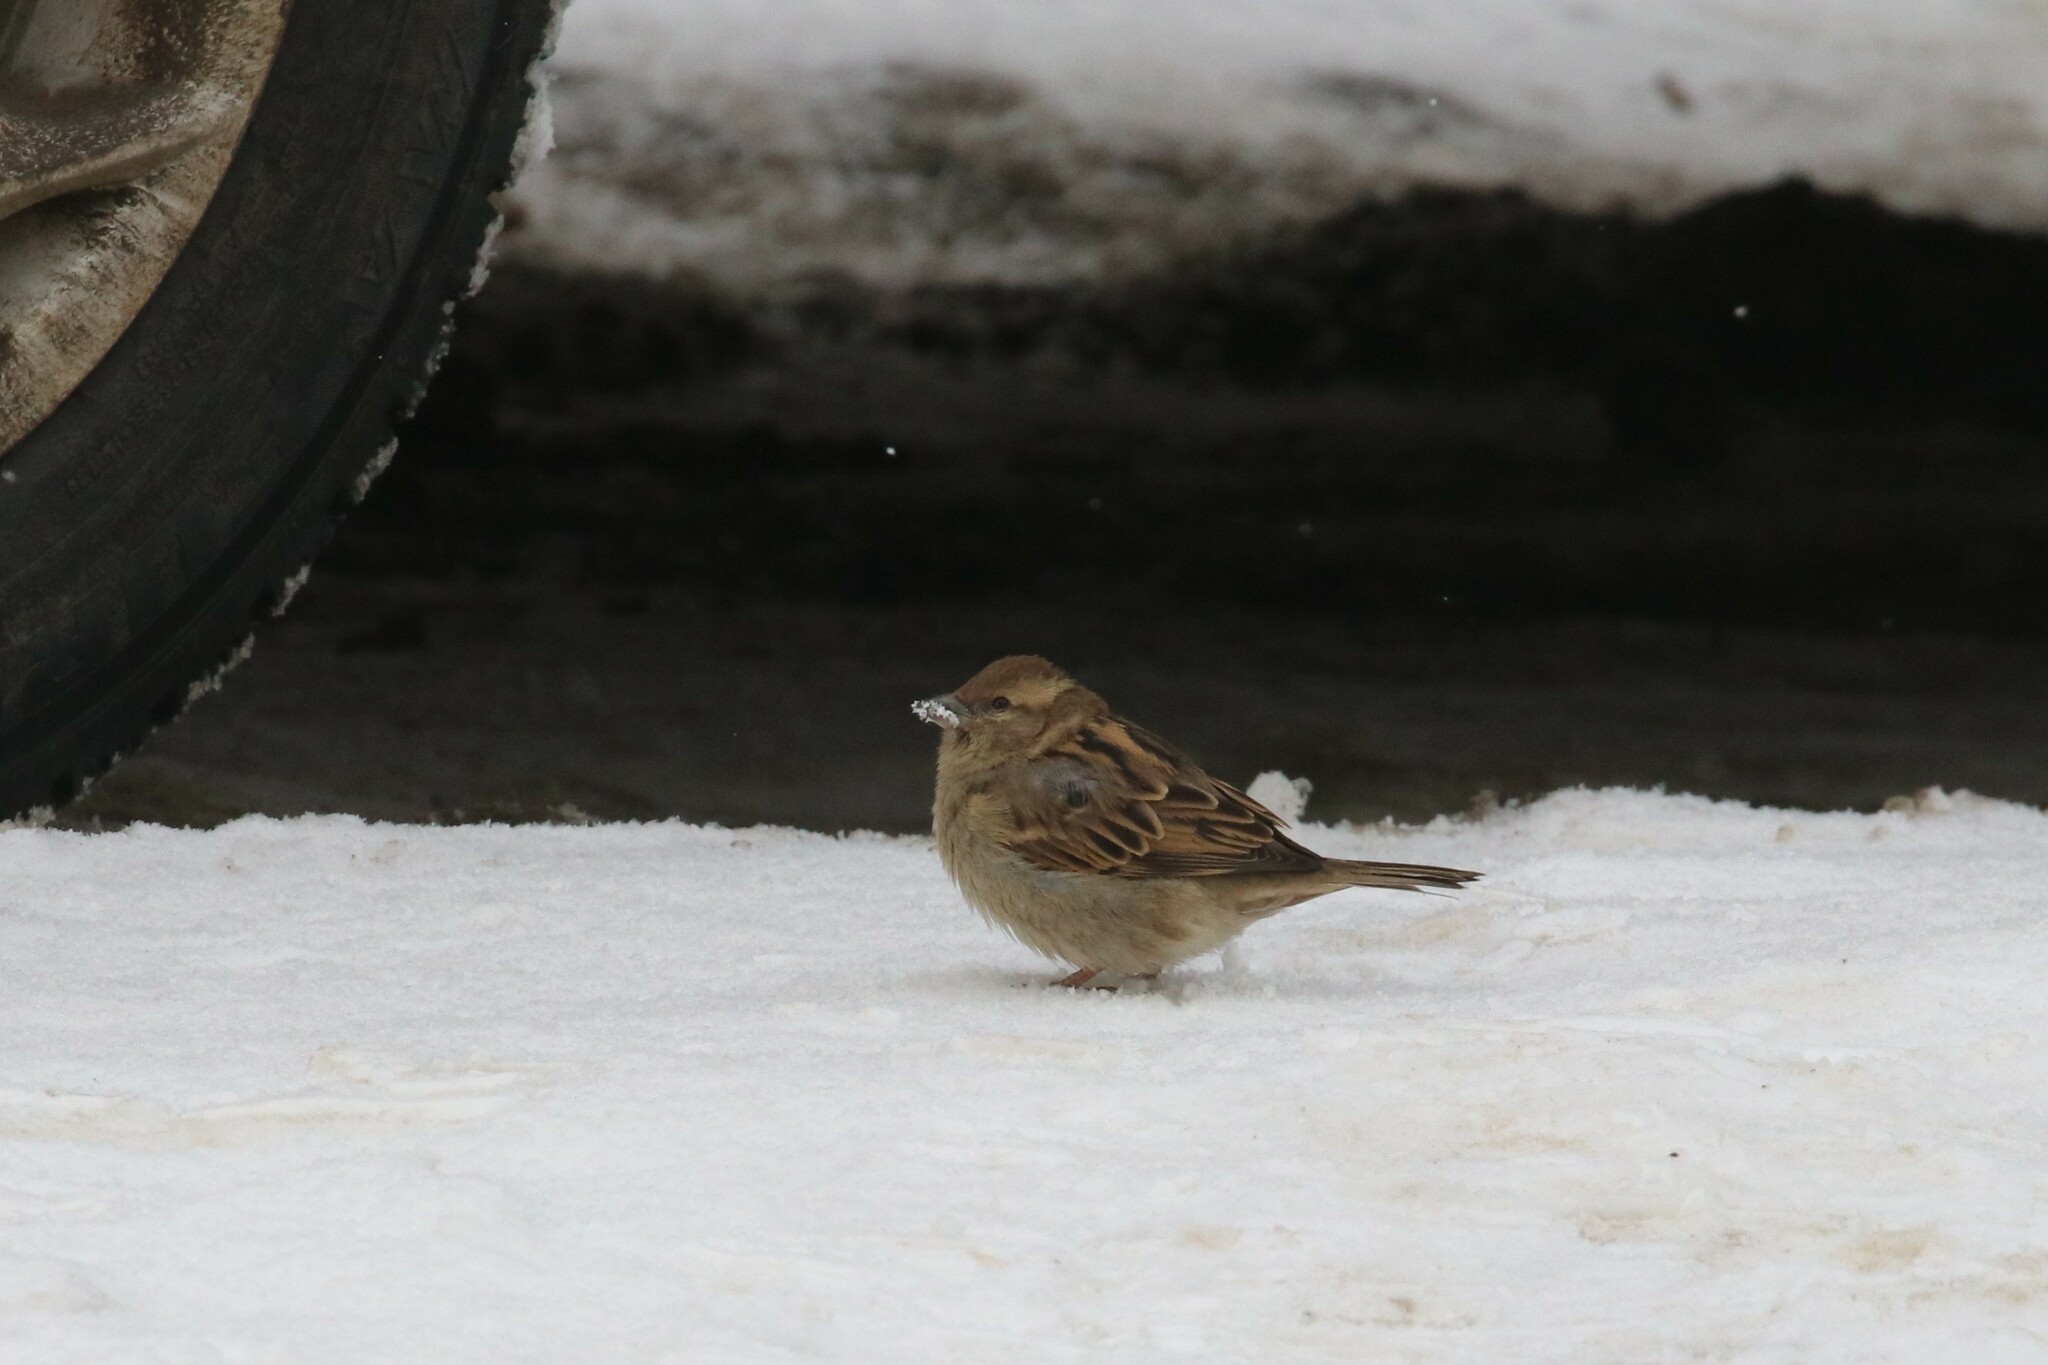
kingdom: Animalia
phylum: Chordata
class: Aves
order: Passeriformes
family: Passeridae
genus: Passer
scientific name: Passer domesticus
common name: House sparrow
